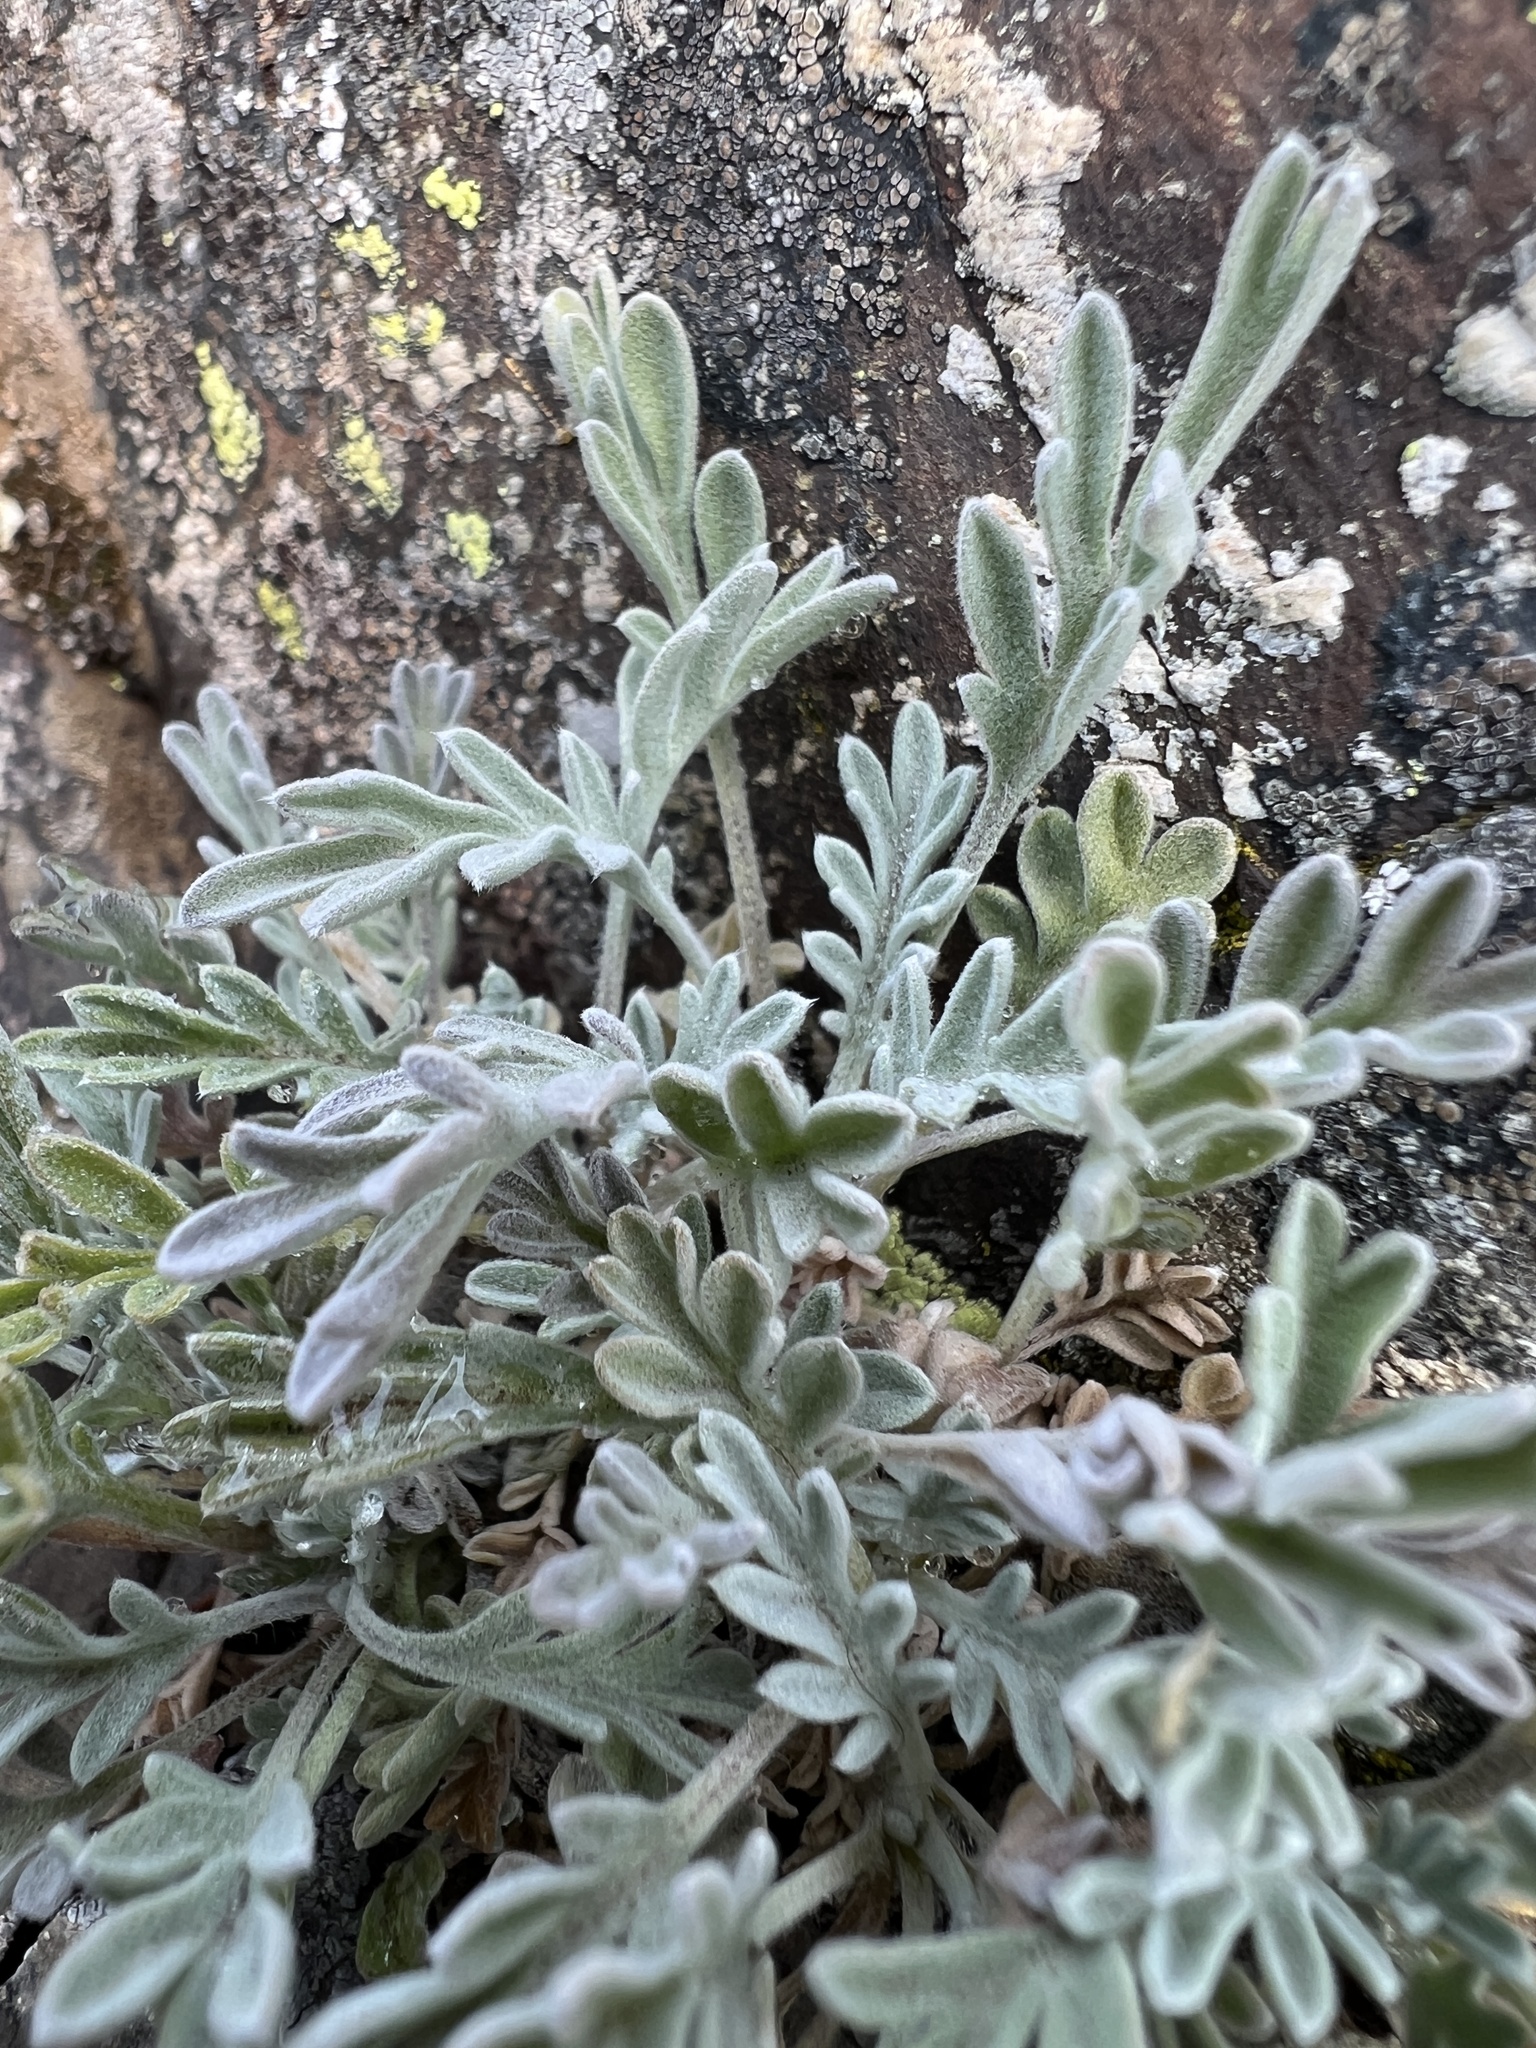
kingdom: Plantae
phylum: Tracheophyta
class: Magnoliopsida
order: Brassicales
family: Brassicaceae
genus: Smelowskia
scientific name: Smelowskia americana
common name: American false candytuft
